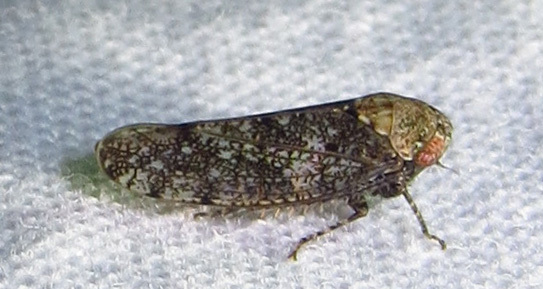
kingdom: Animalia
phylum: Arthropoda
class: Insecta
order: Hemiptera
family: Cicadellidae
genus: Paraphlepsius
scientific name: Paraphlepsius collitus
